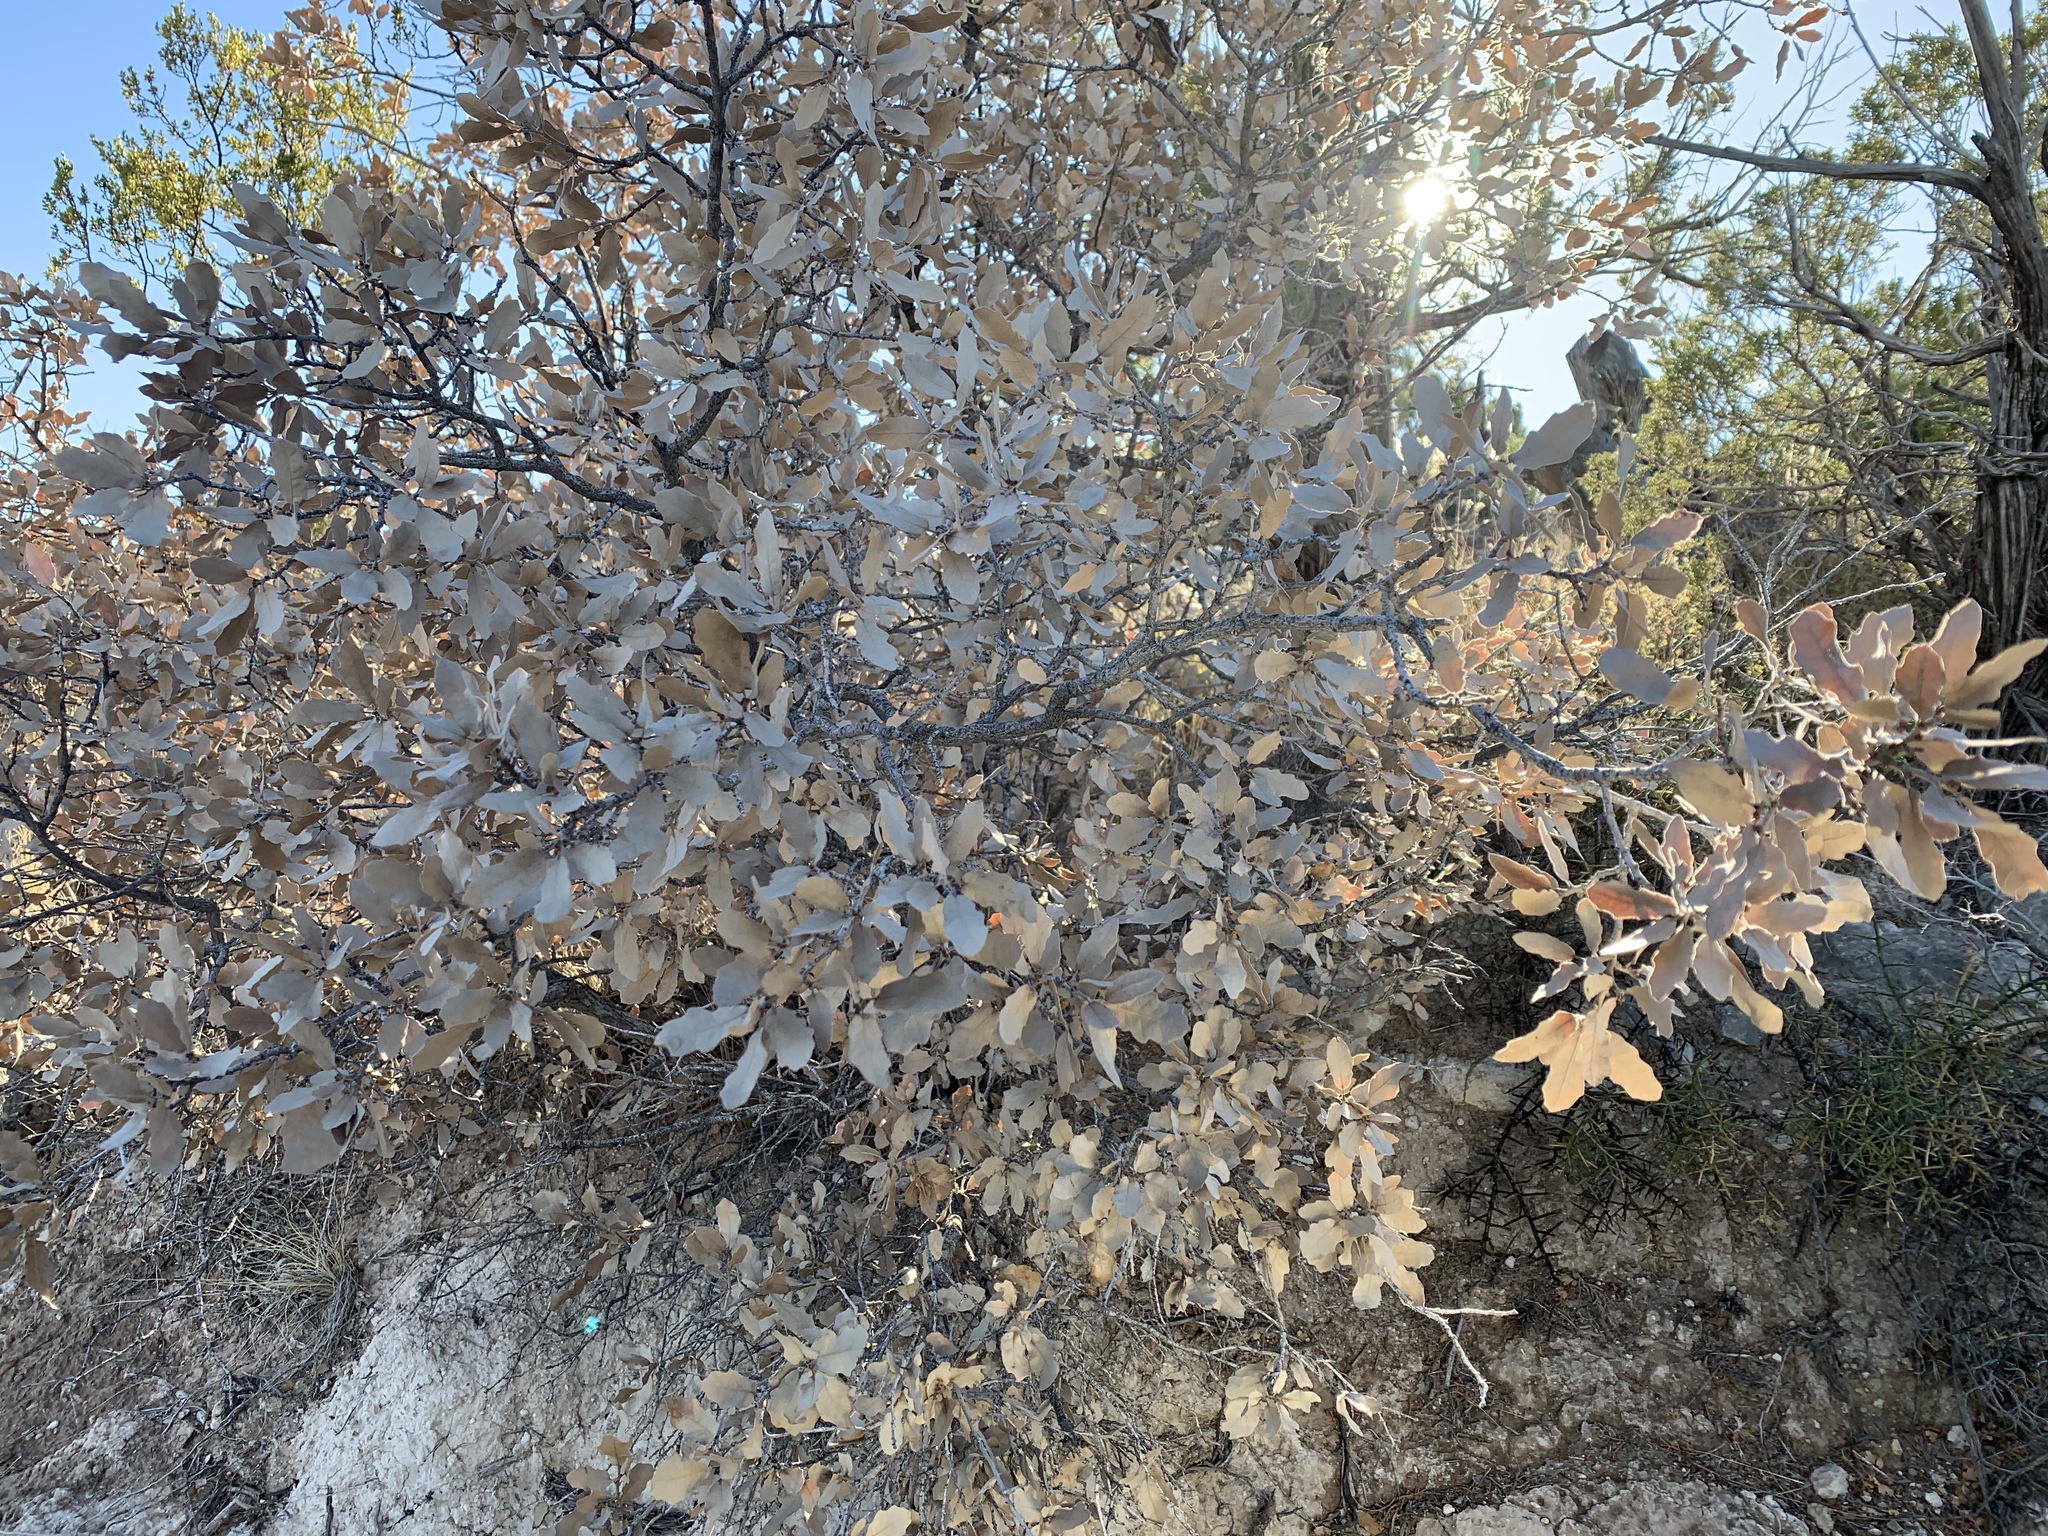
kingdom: Plantae
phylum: Tracheophyta
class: Magnoliopsida
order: Fagales
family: Fagaceae
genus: Quercus
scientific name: Quercus undulata
